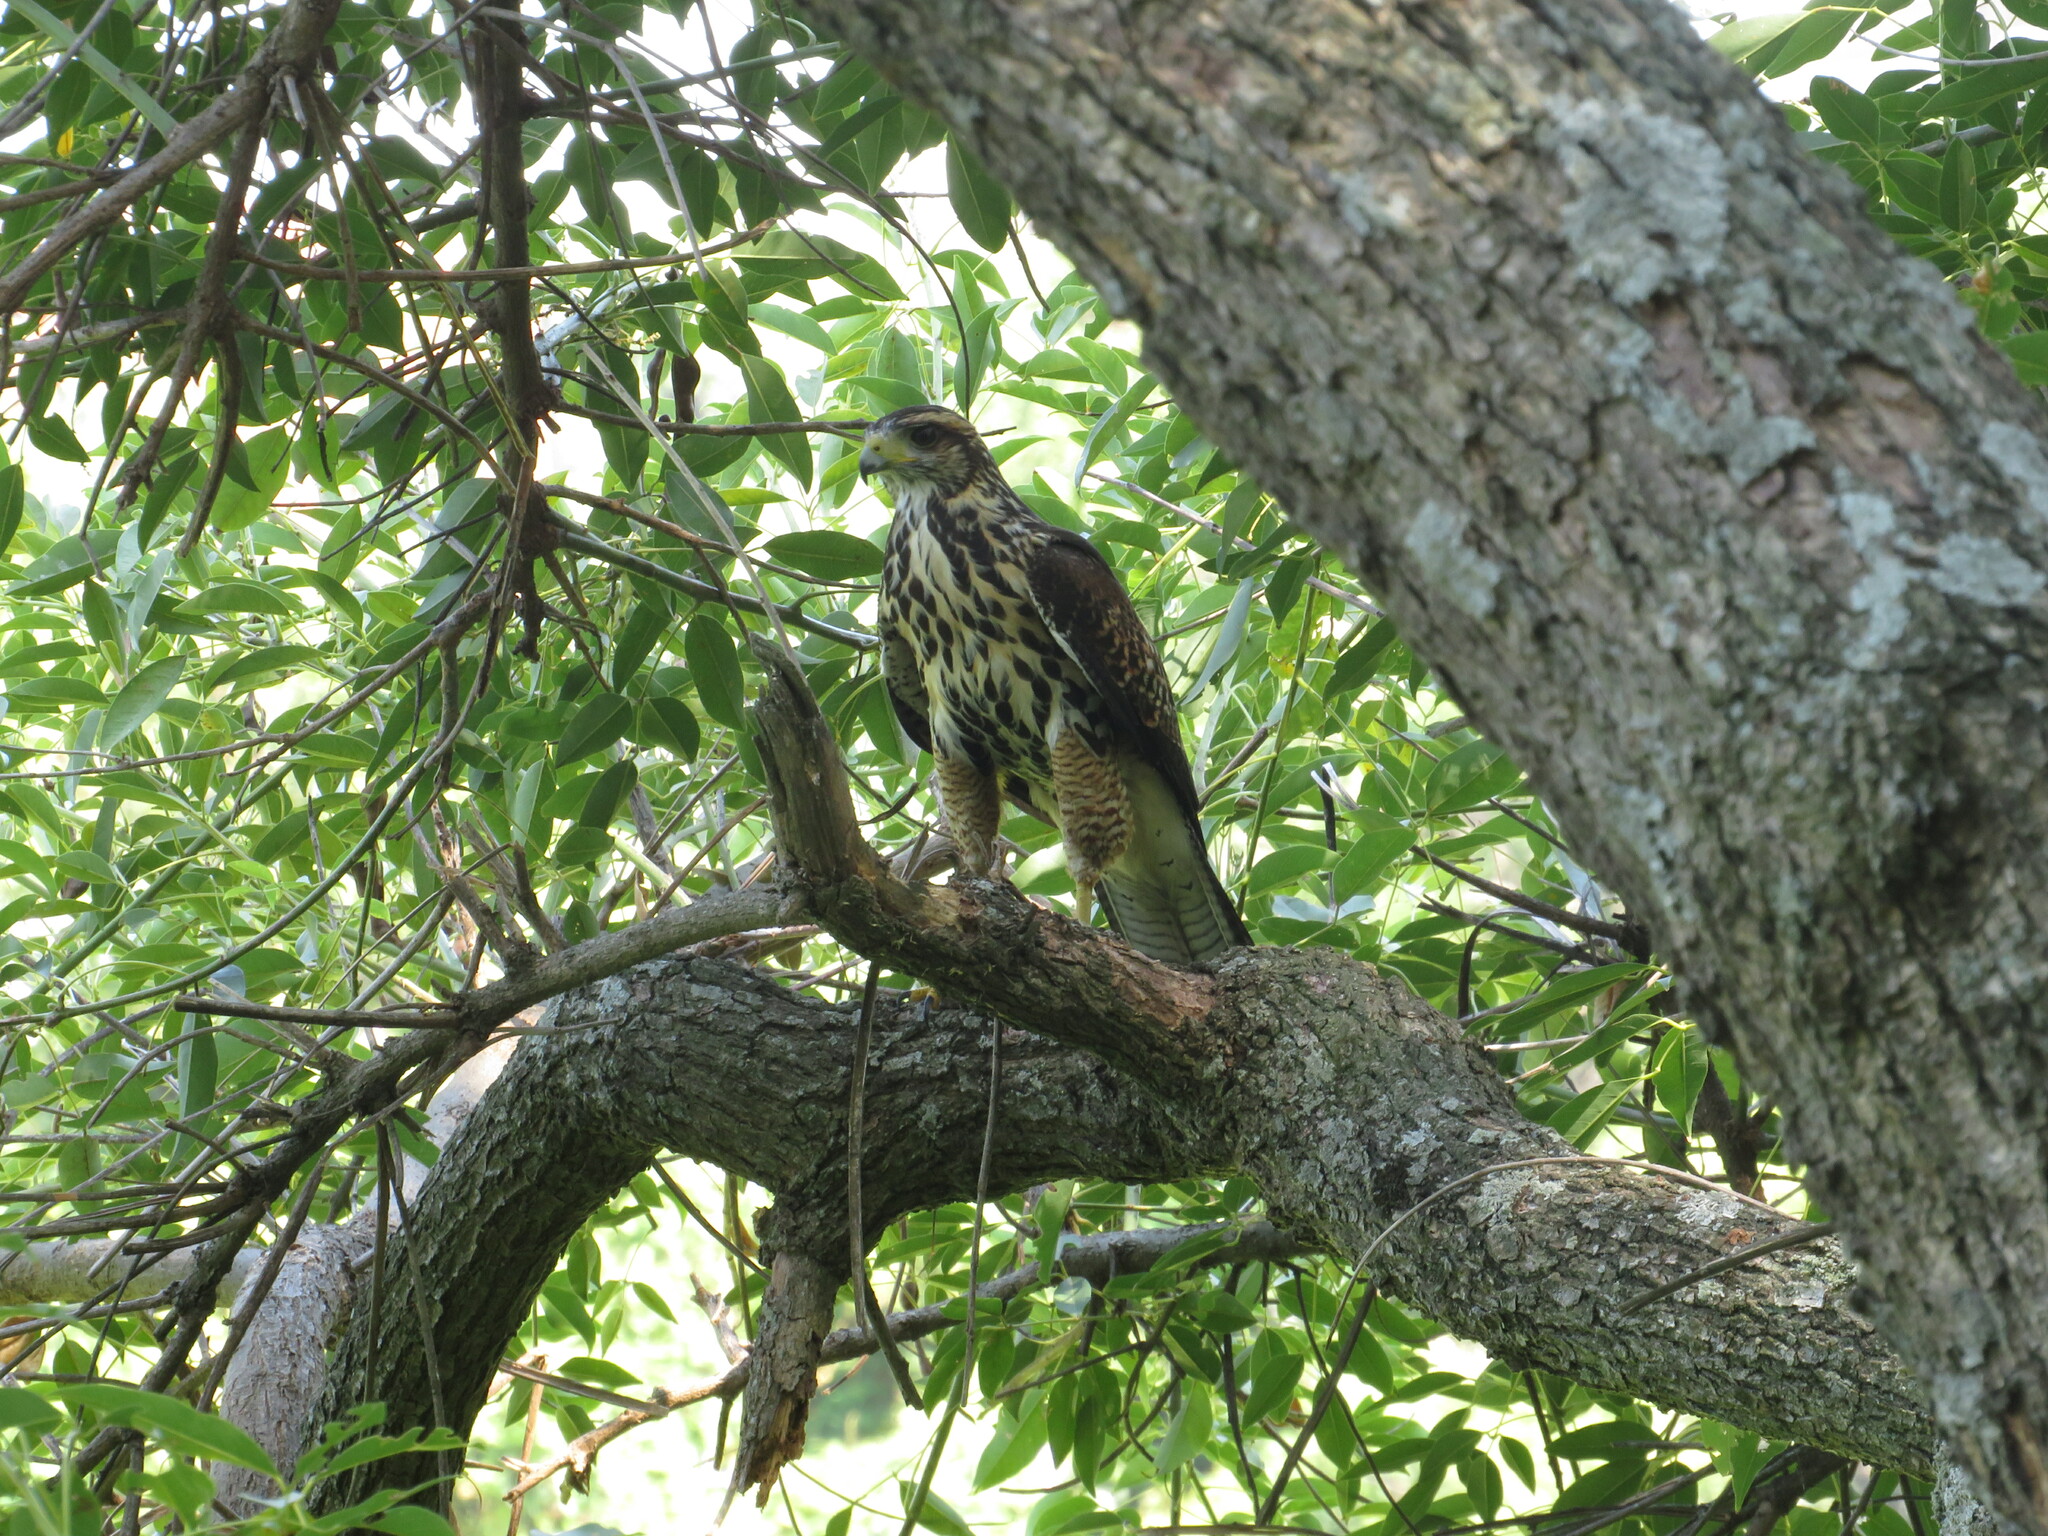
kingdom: Animalia
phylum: Chordata
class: Aves
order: Accipitriformes
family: Accipitridae
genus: Parabuteo
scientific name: Parabuteo unicinctus
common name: Harris's hawk
